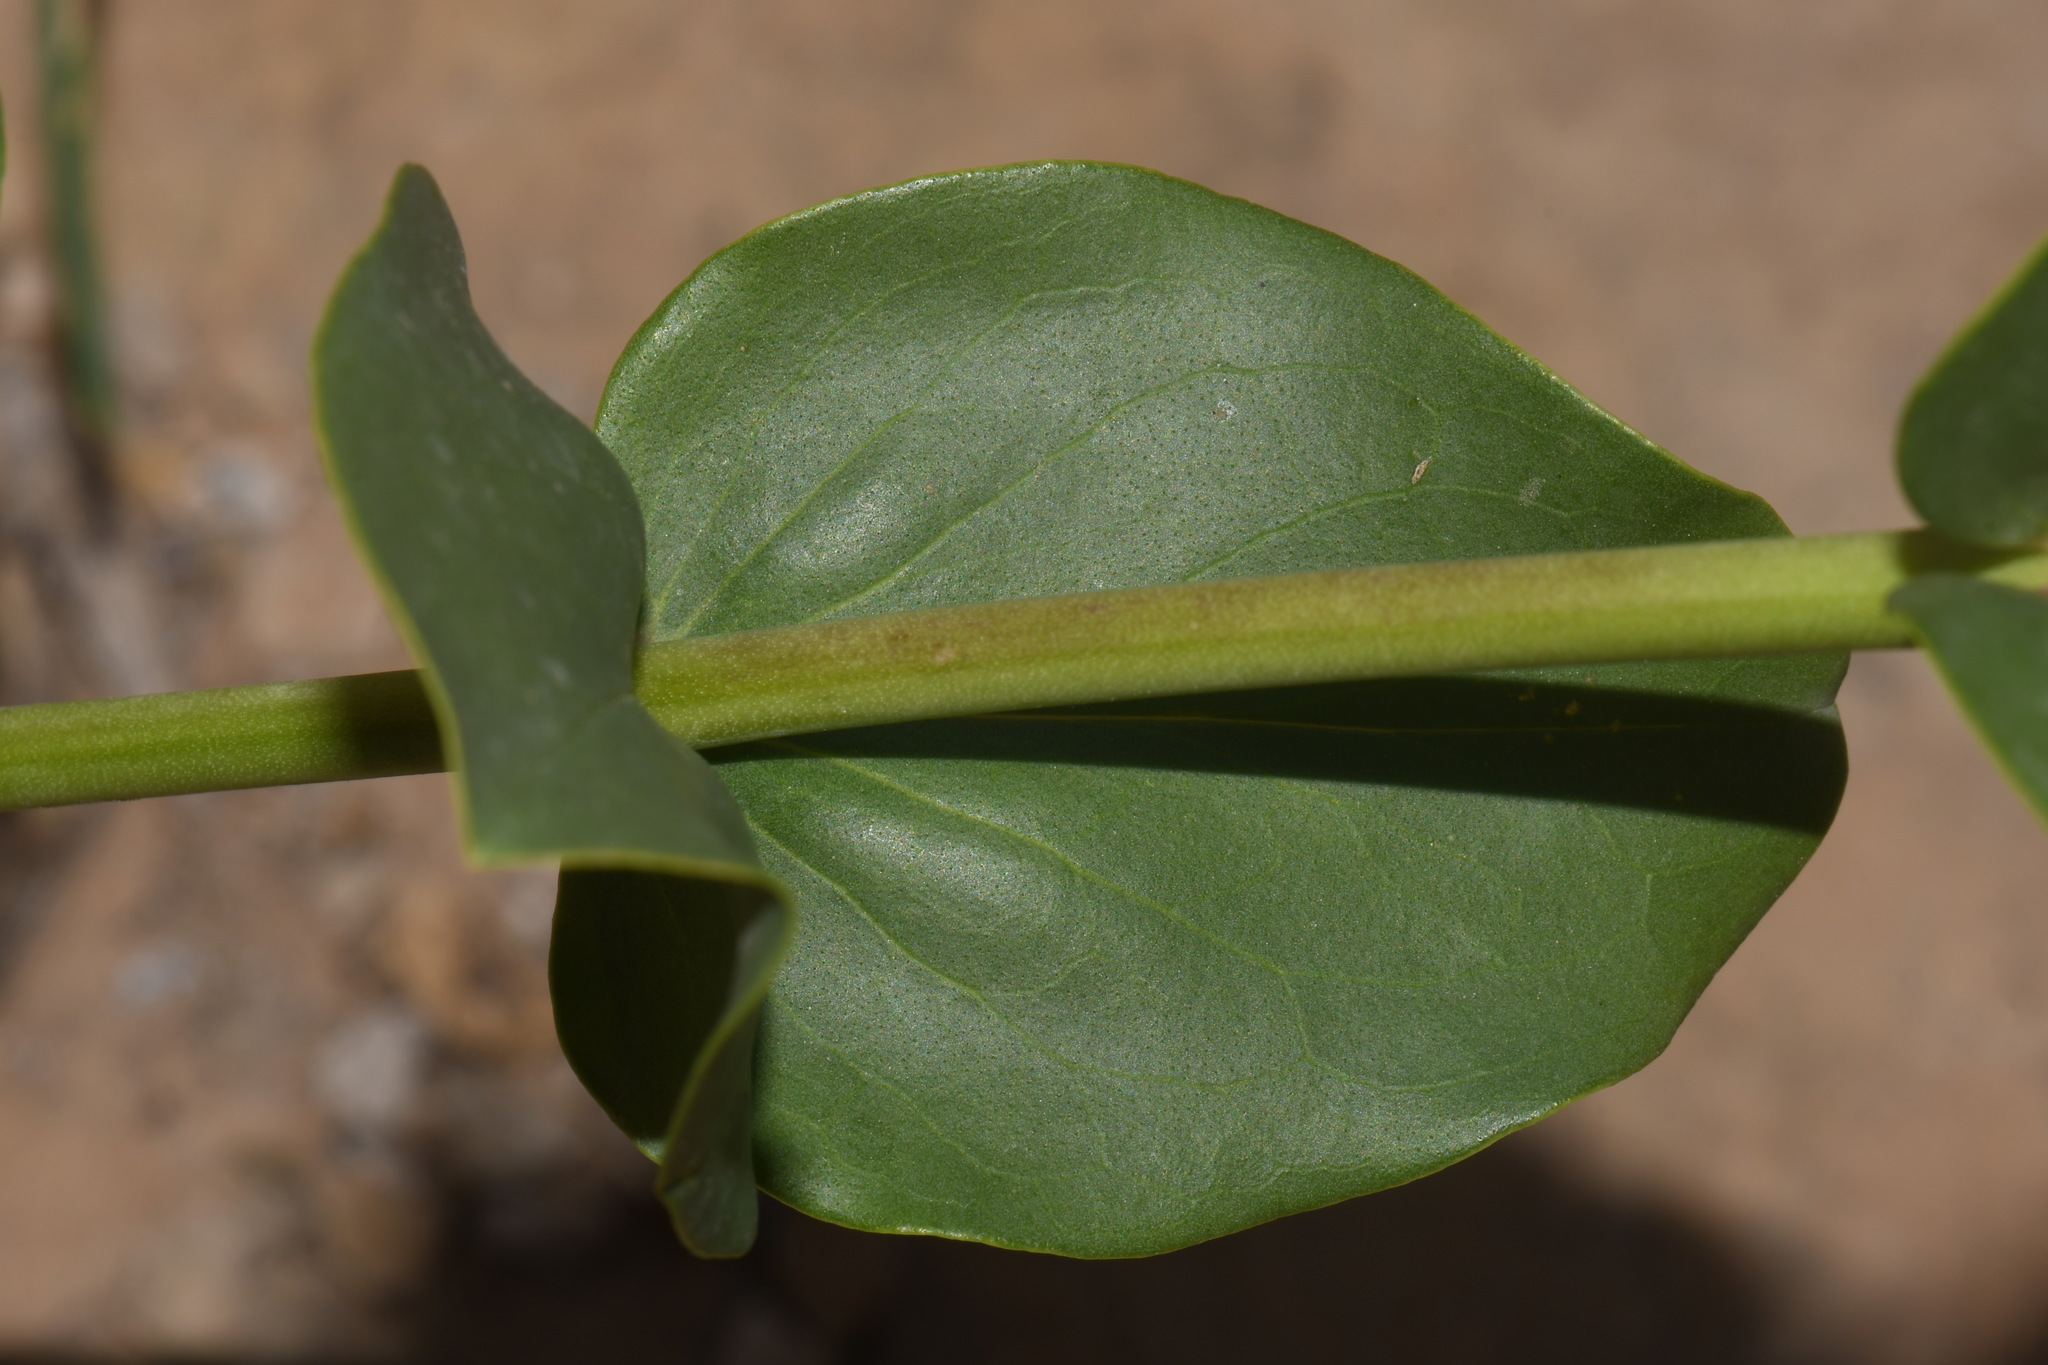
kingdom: Plantae
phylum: Tracheophyta
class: Magnoliopsida
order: Lamiales
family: Plantaginaceae
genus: Penstemon
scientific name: Penstemon cardinalis
